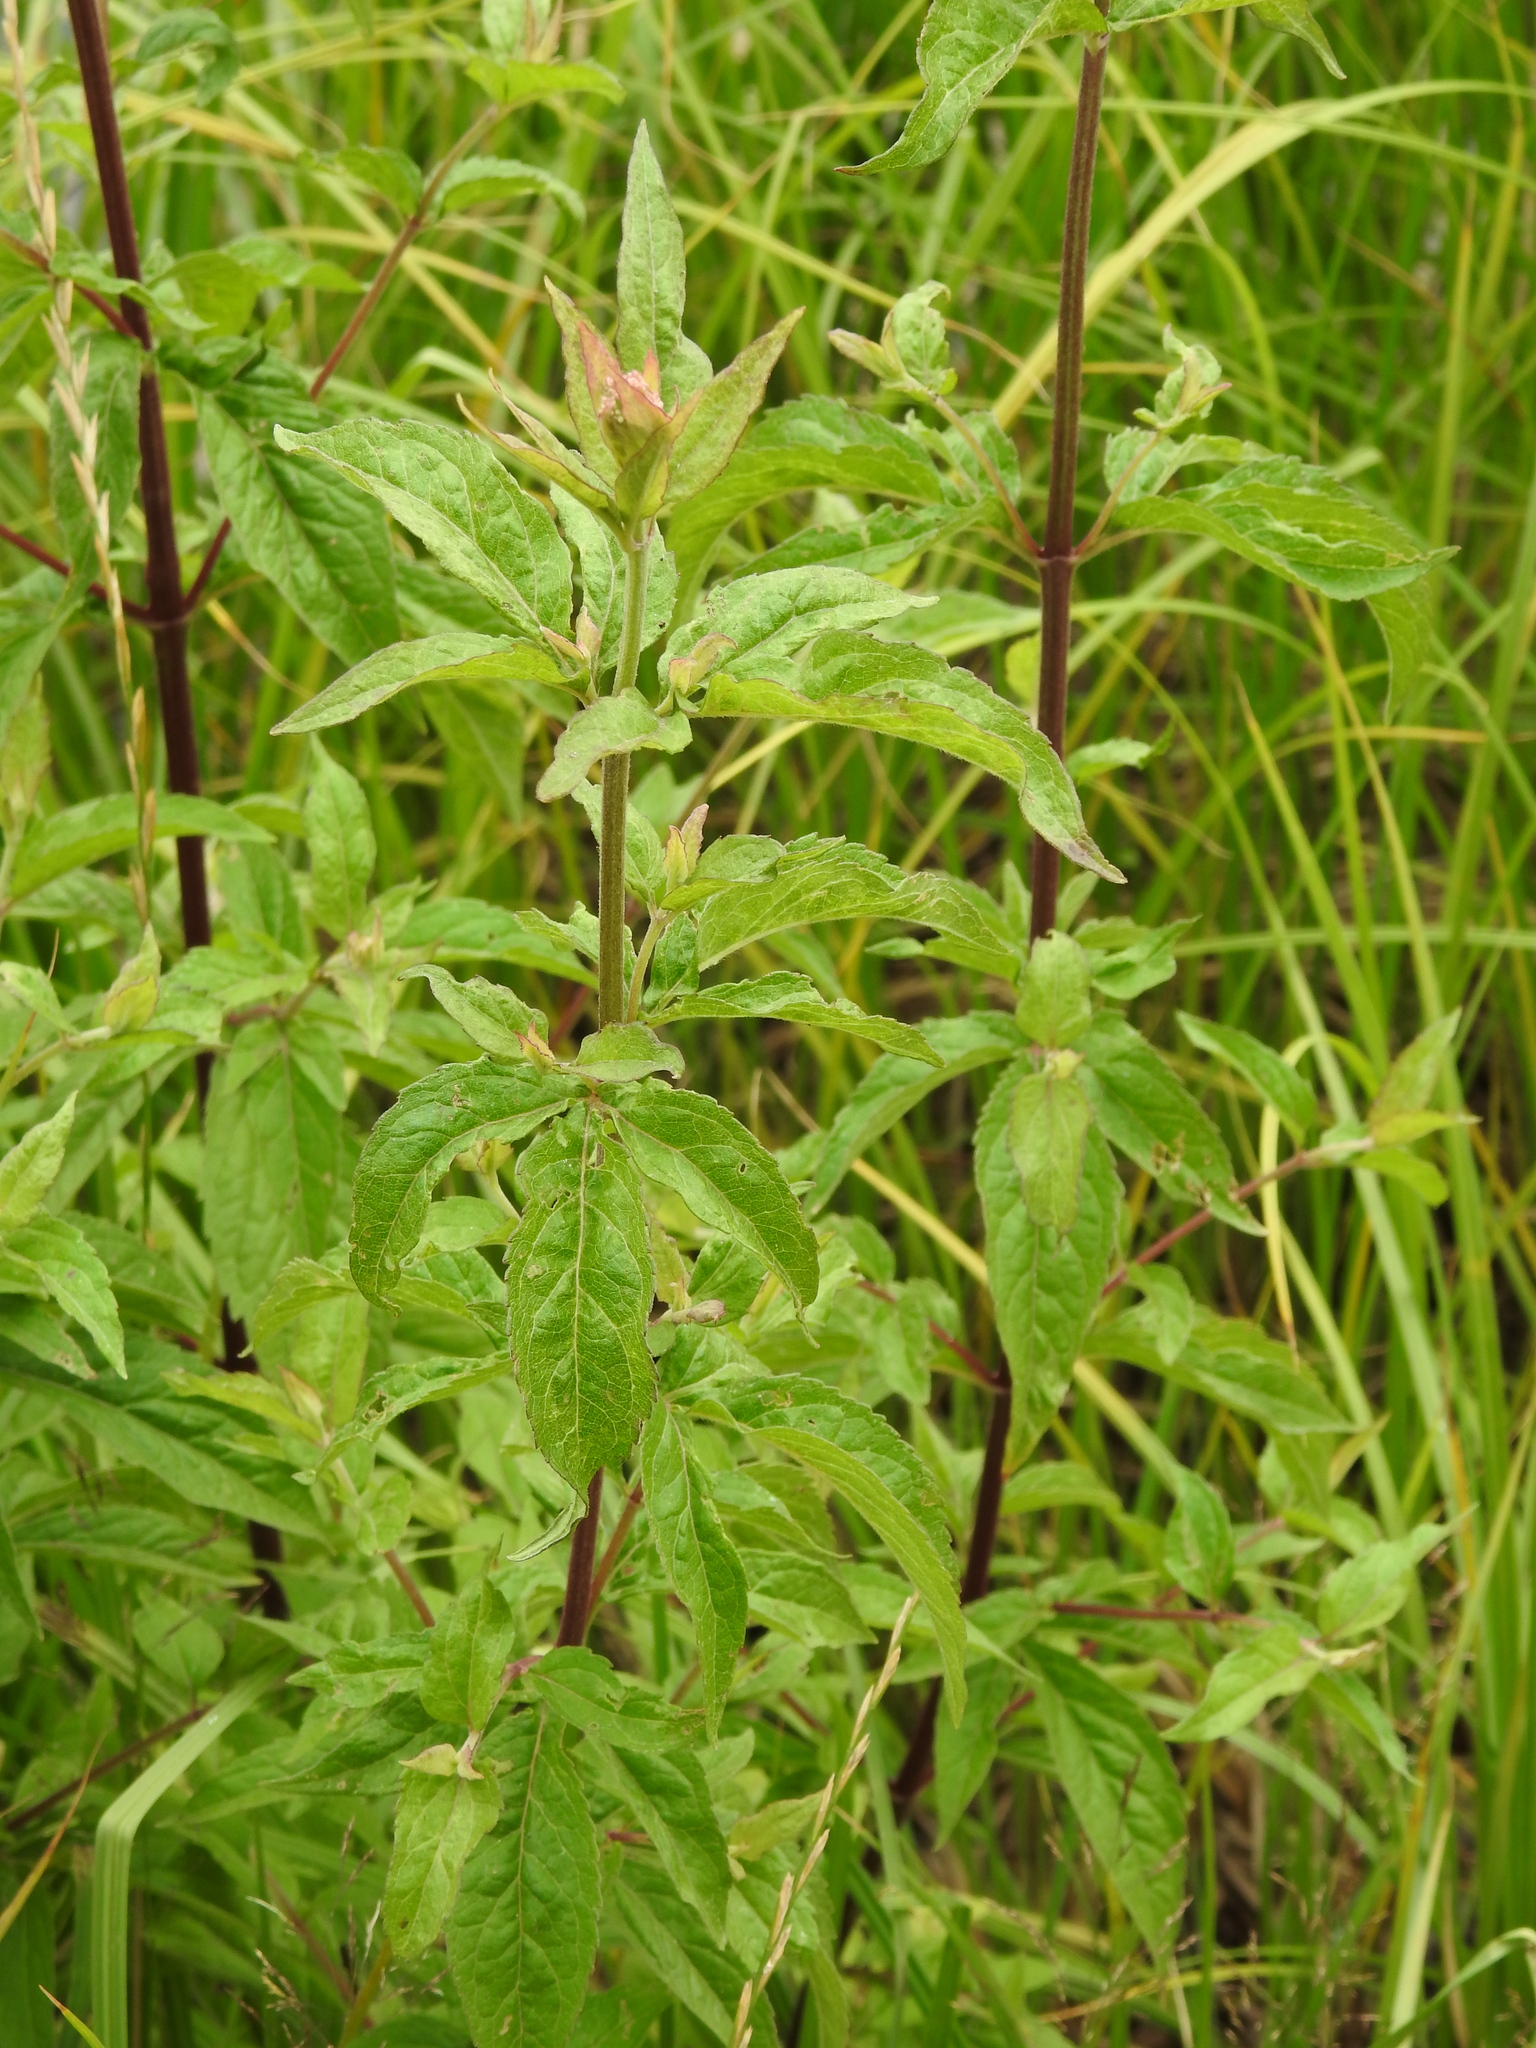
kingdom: Plantae
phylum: Tracheophyta
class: Magnoliopsida
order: Asterales
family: Asteraceae
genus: Eupatorium
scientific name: Eupatorium cannabinum
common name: Hemp-agrimony
